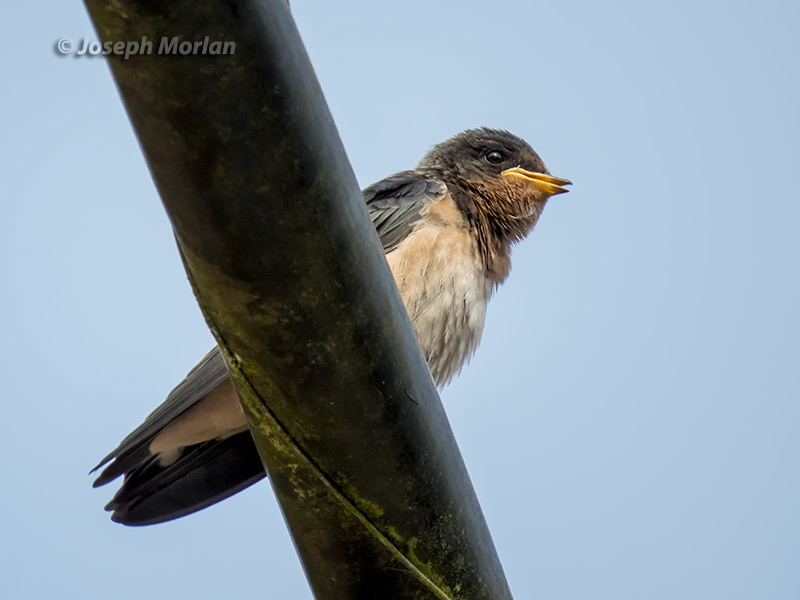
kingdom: Animalia
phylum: Chordata
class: Aves
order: Passeriformes
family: Hirundinidae
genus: Hirundo
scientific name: Hirundo rustica
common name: Barn swallow
